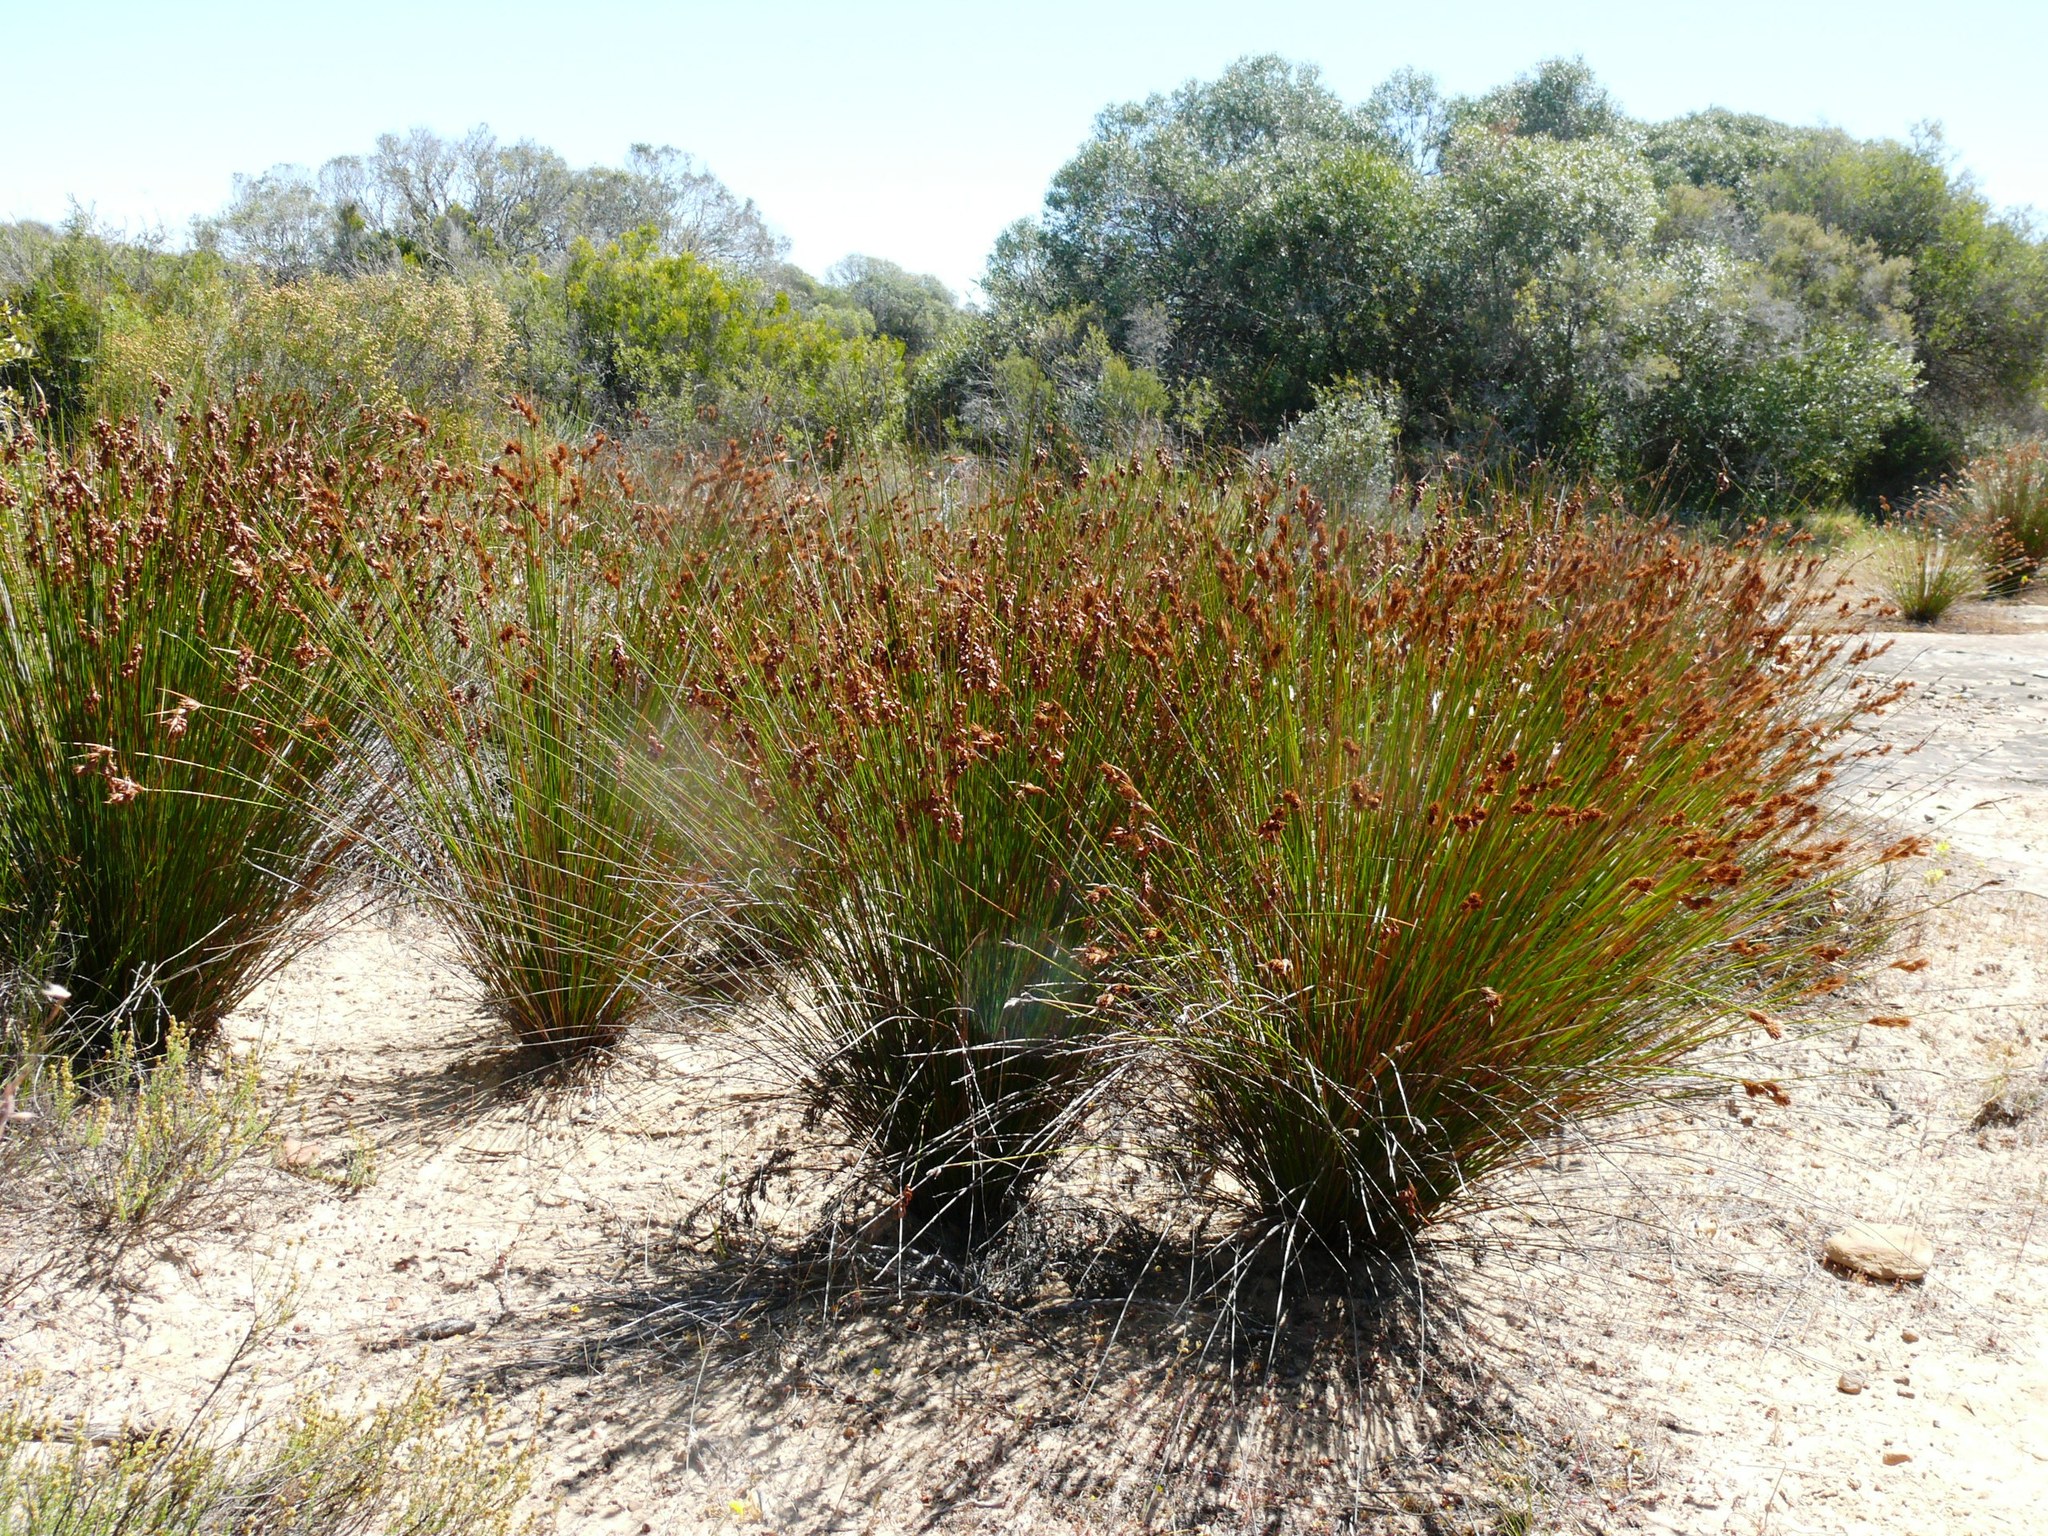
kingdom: Plantae
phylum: Tracheophyta
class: Liliopsida
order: Poales
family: Restionaceae
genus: Thamnochortus
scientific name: Thamnochortus bachmannii
